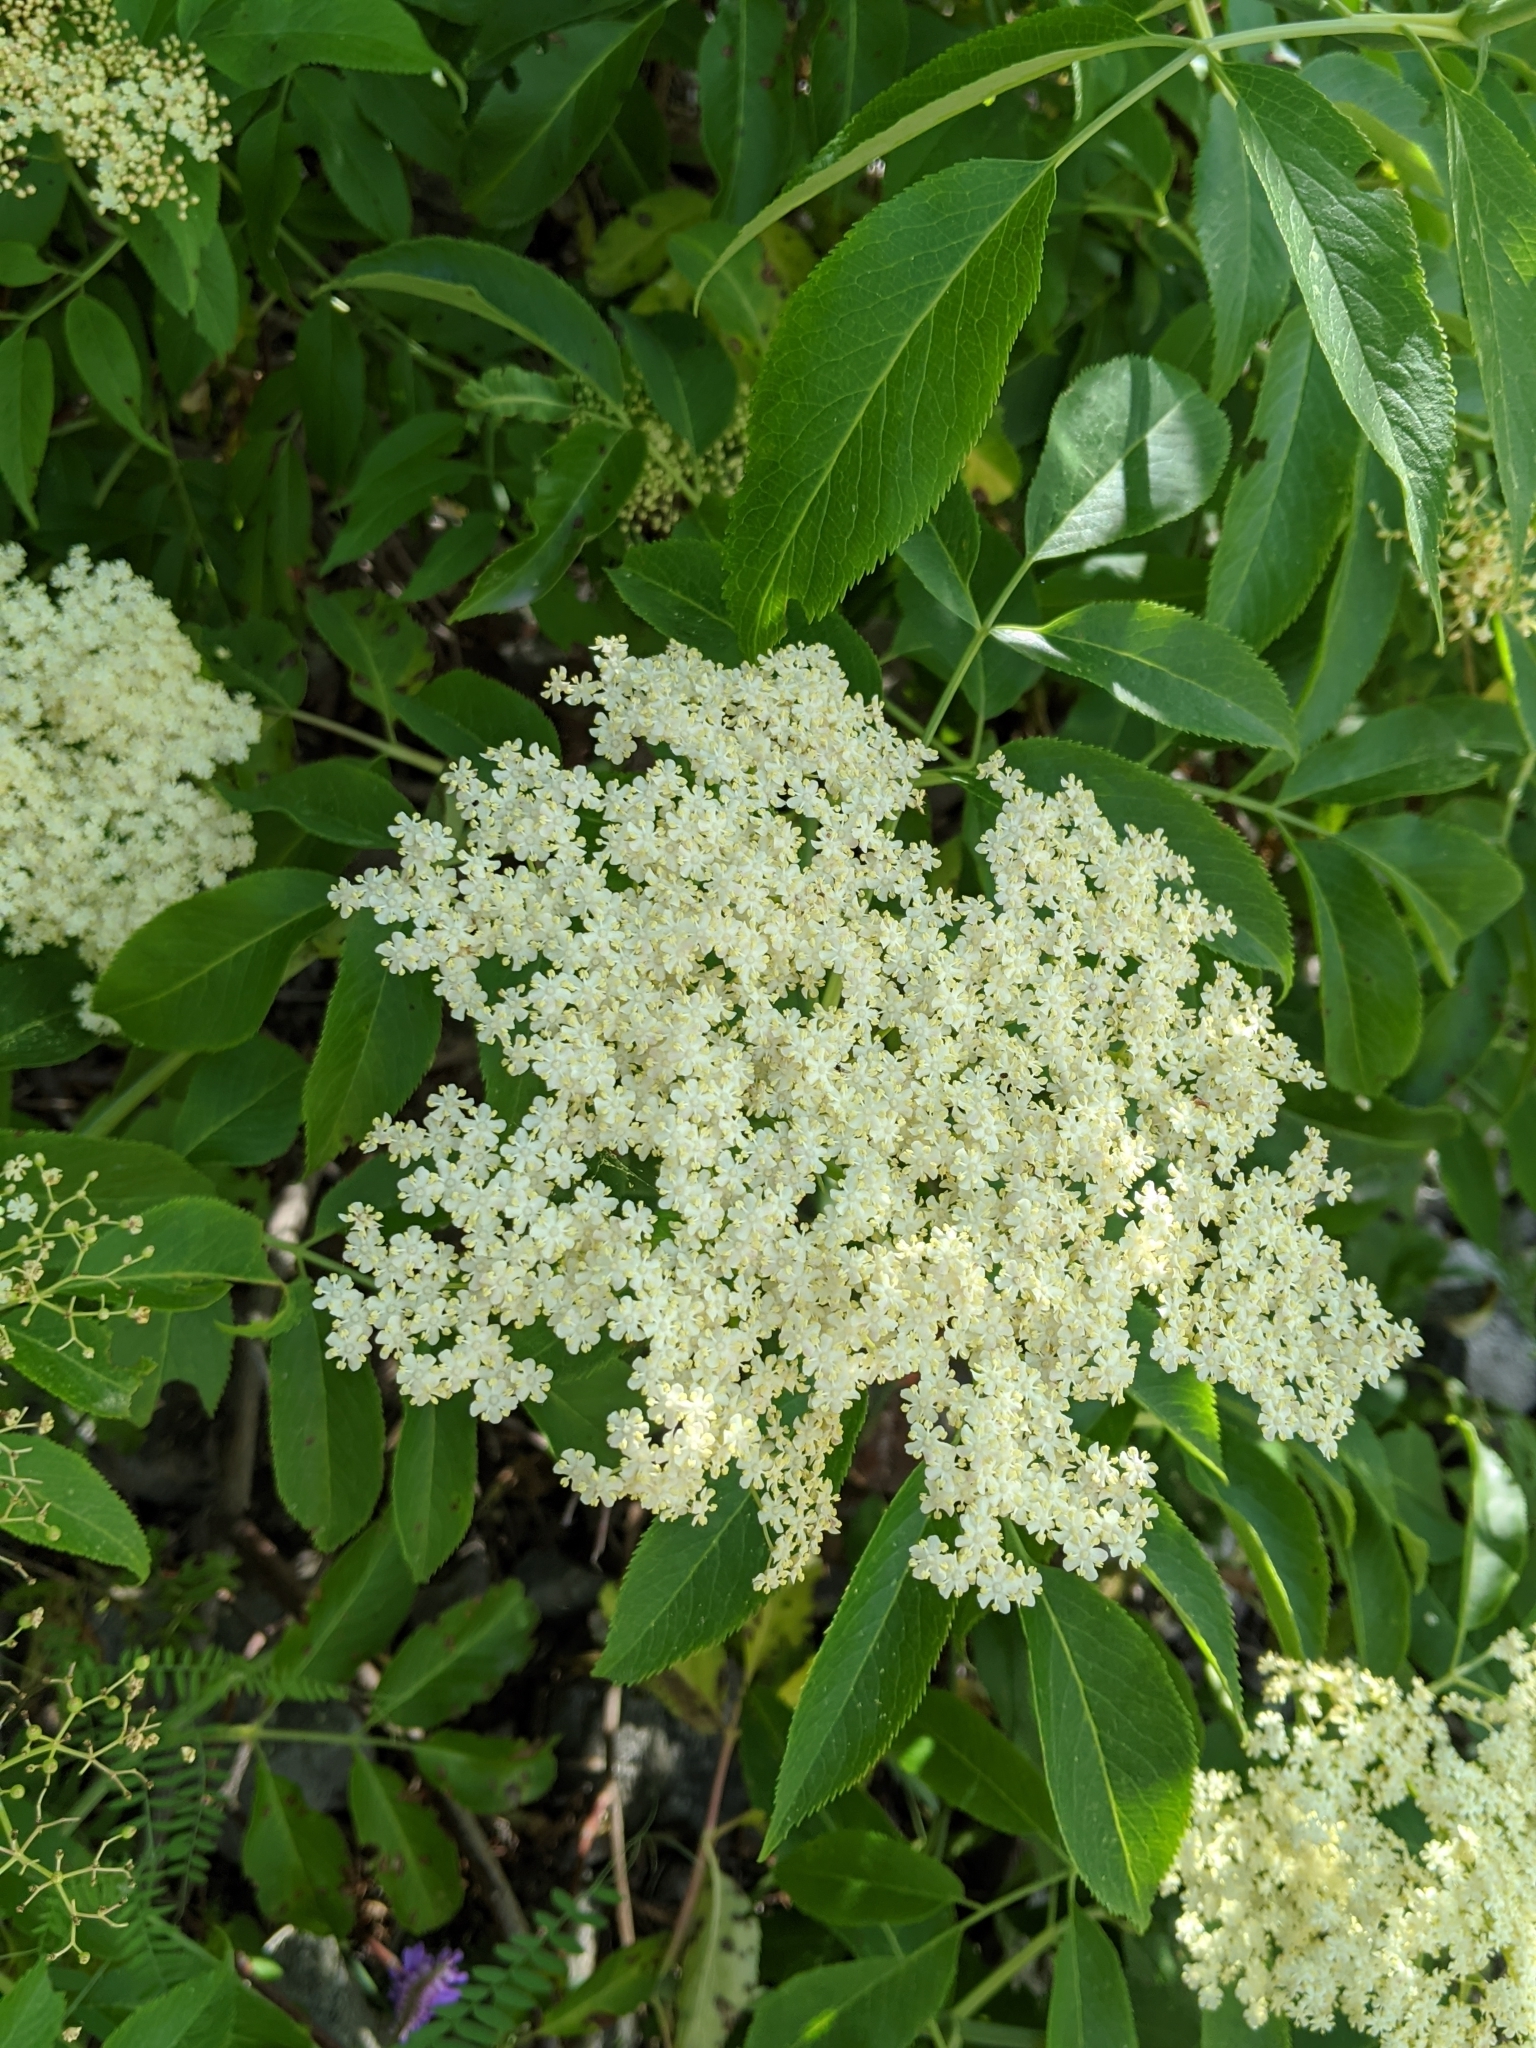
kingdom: Plantae
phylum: Tracheophyta
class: Magnoliopsida
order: Dipsacales
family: Viburnaceae
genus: Sambucus
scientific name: Sambucus cerulea
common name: Blue elder
